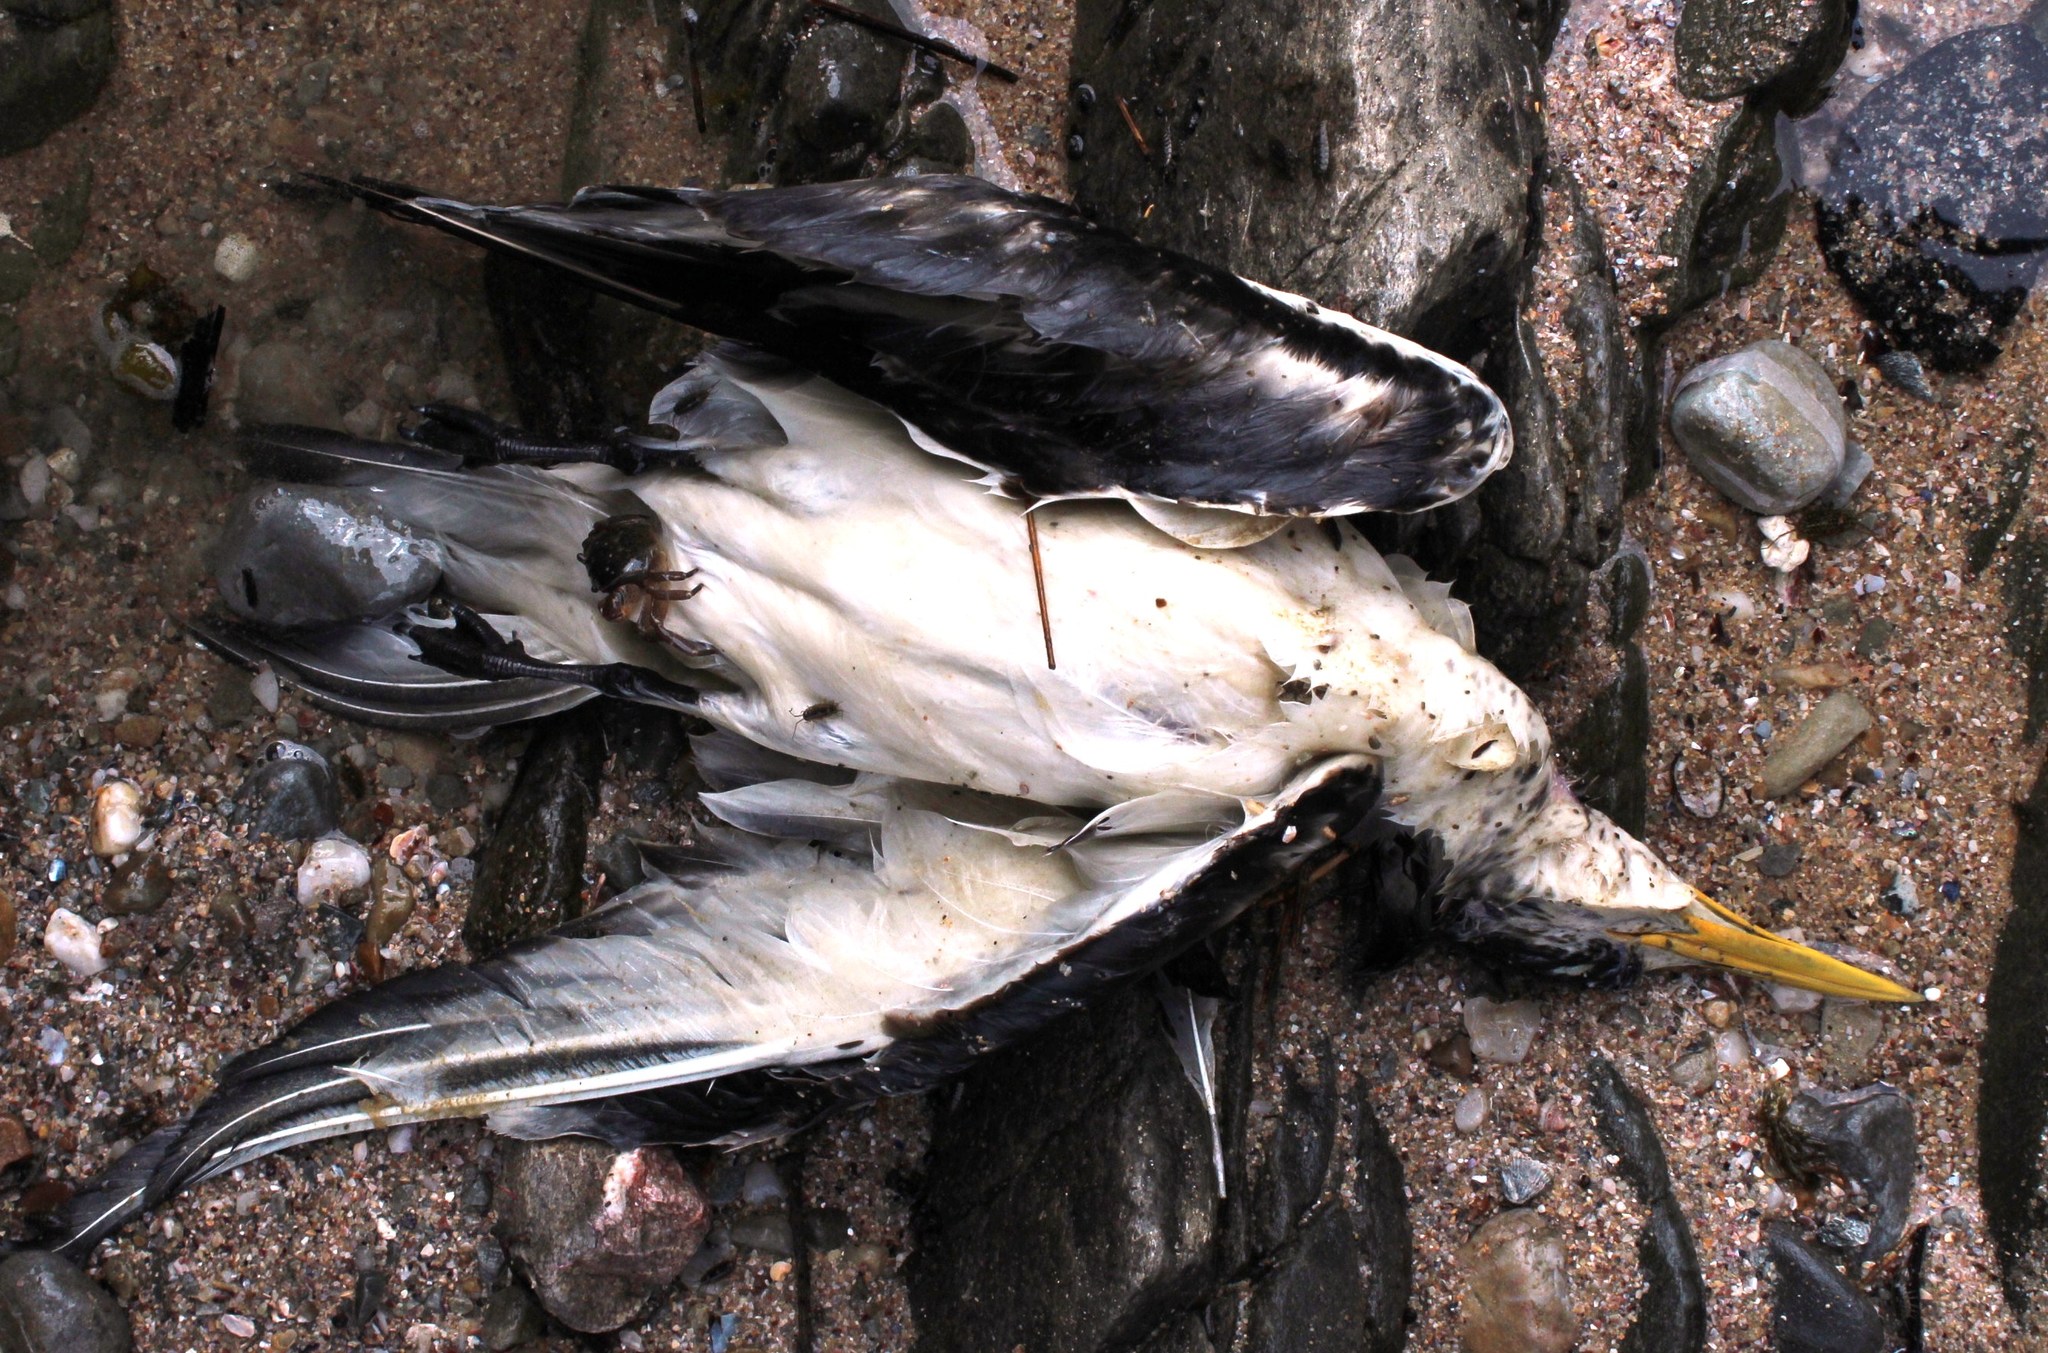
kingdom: Animalia
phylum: Chordata
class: Aves
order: Charadriiformes
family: Laridae
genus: Thalasseus
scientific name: Thalasseus bergii
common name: Greater crested tern
